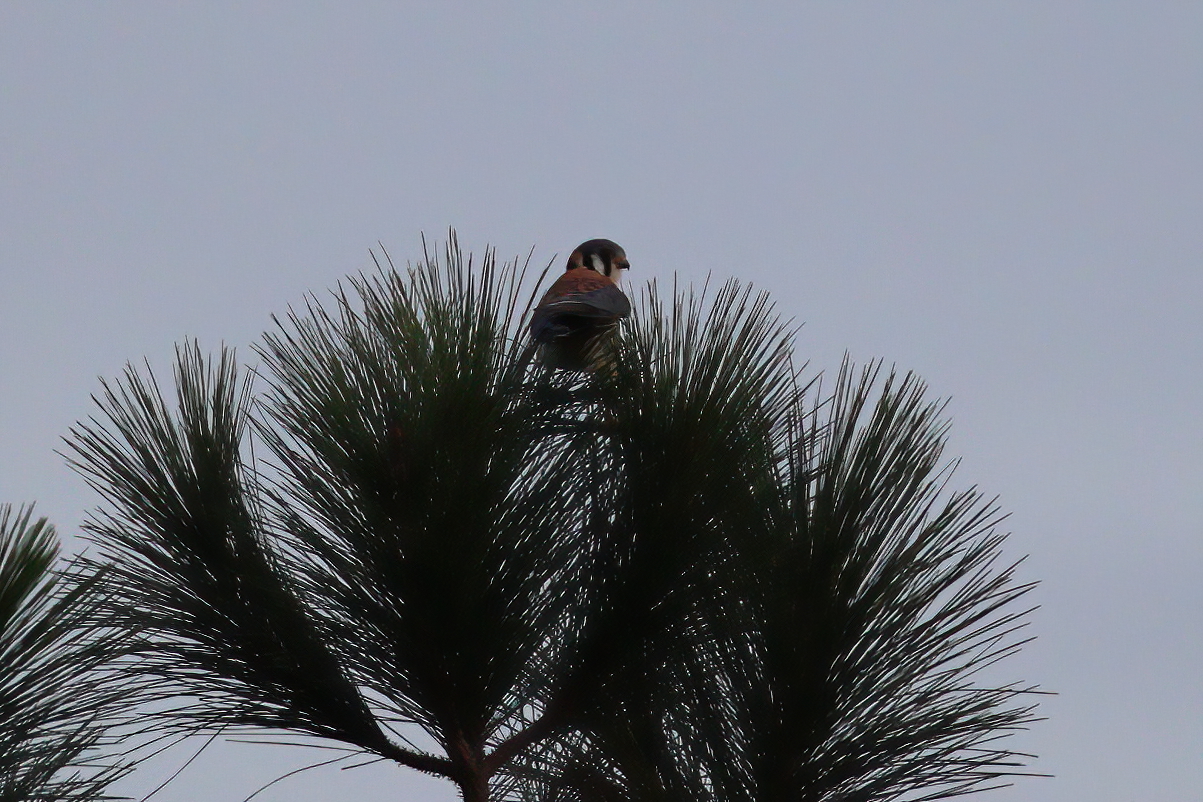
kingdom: Animalia
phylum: Chordata
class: Aves
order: Falconiformes
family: Falconidae
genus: Falco
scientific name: Falco sparverius
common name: American kestrel
